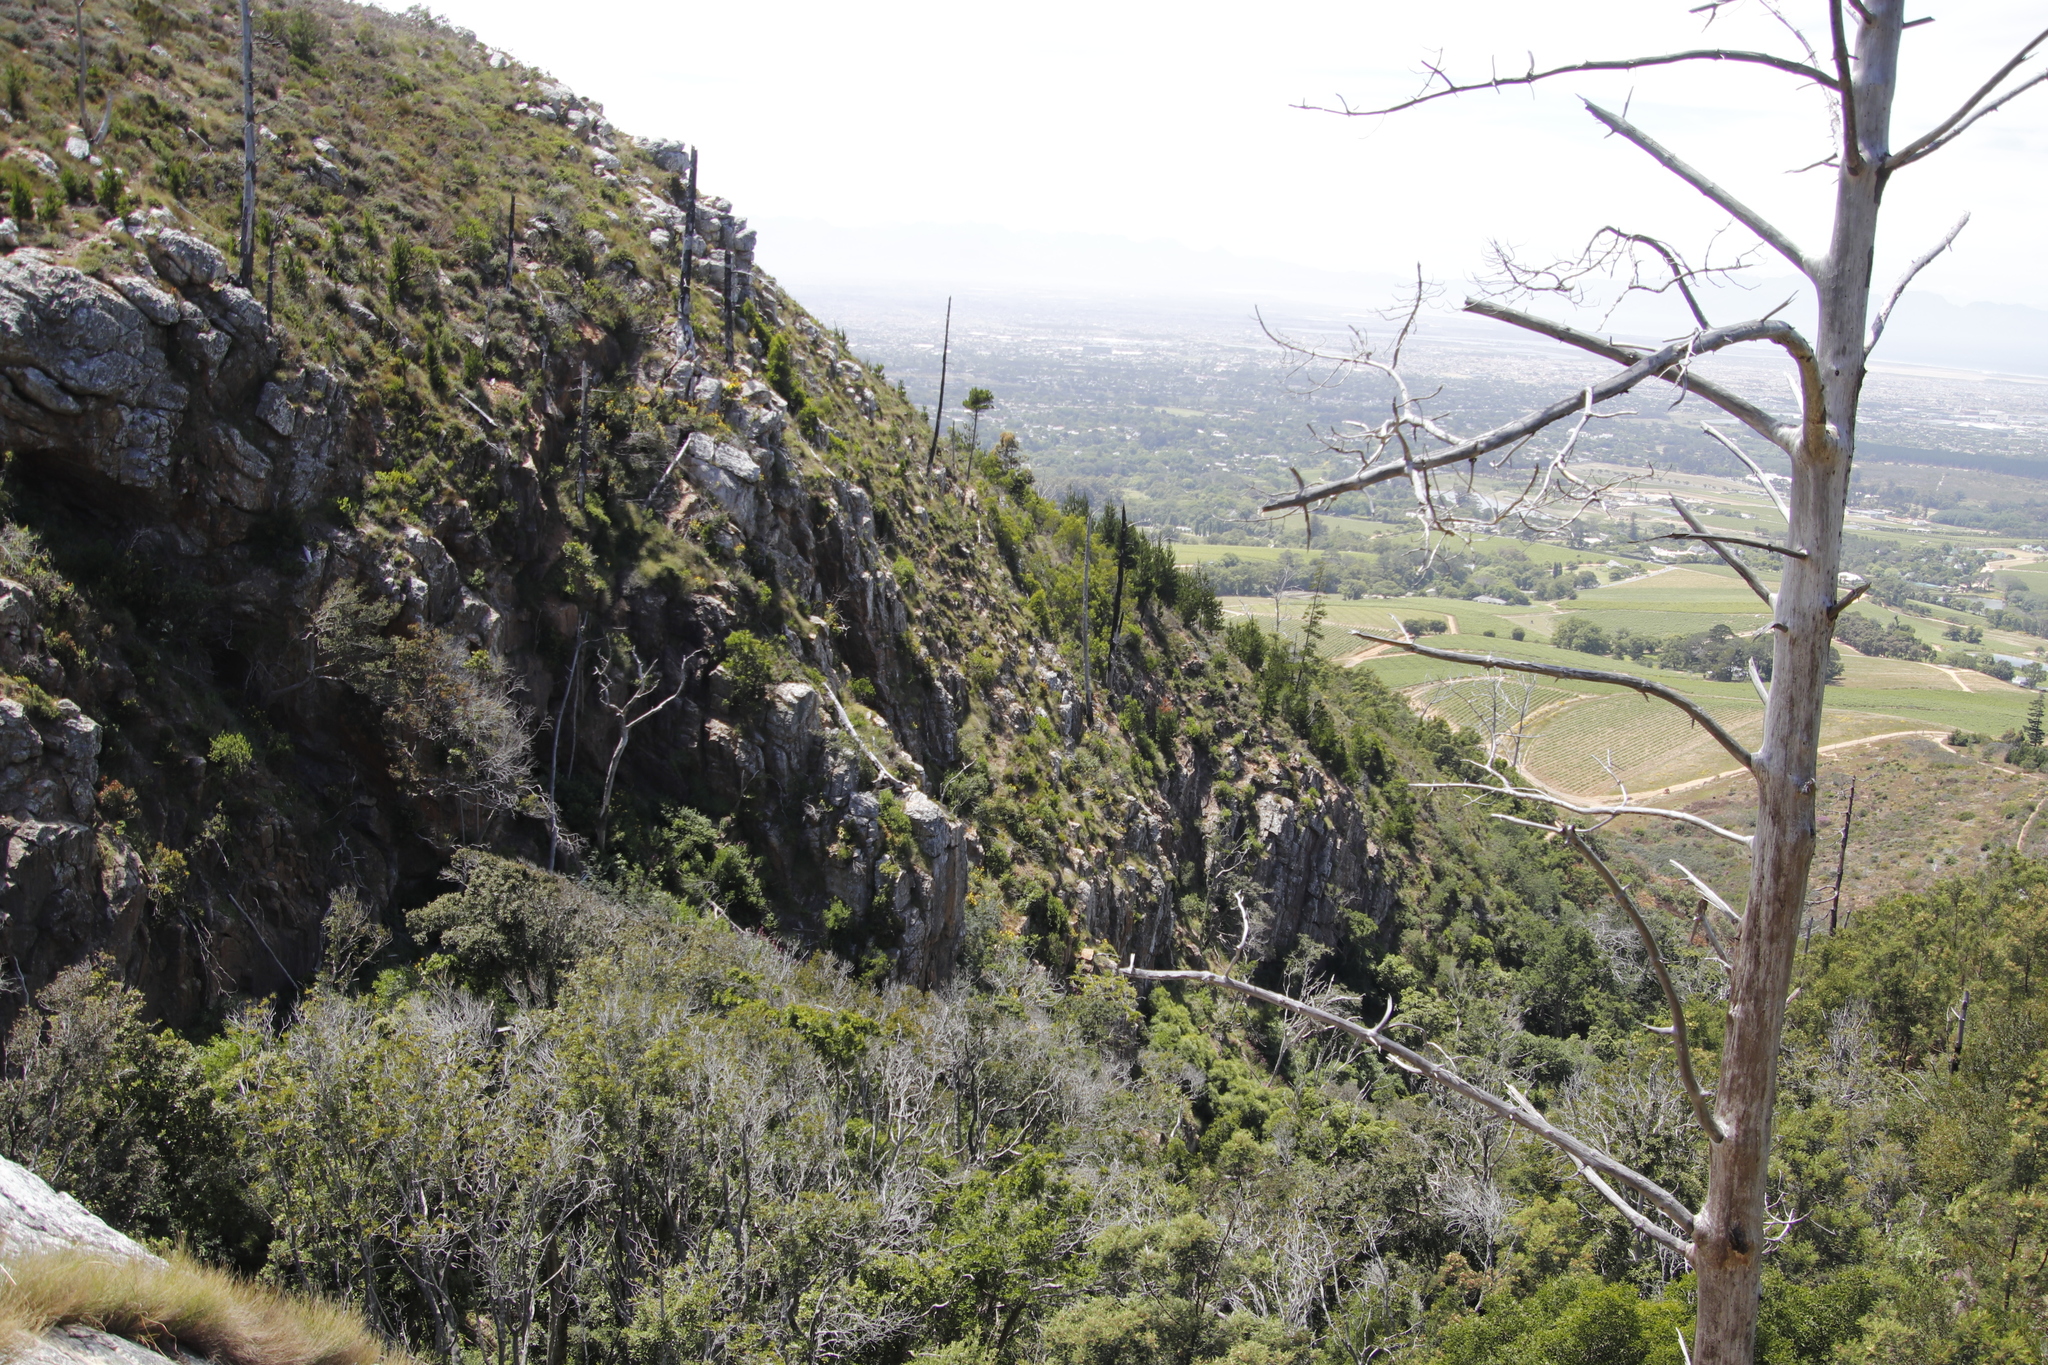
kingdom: Plantae
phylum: Tracheophyta
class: Pinopsida
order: Pinales
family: Pinaceae
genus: Pinus
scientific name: Pinus radiata
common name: Monterey pine
